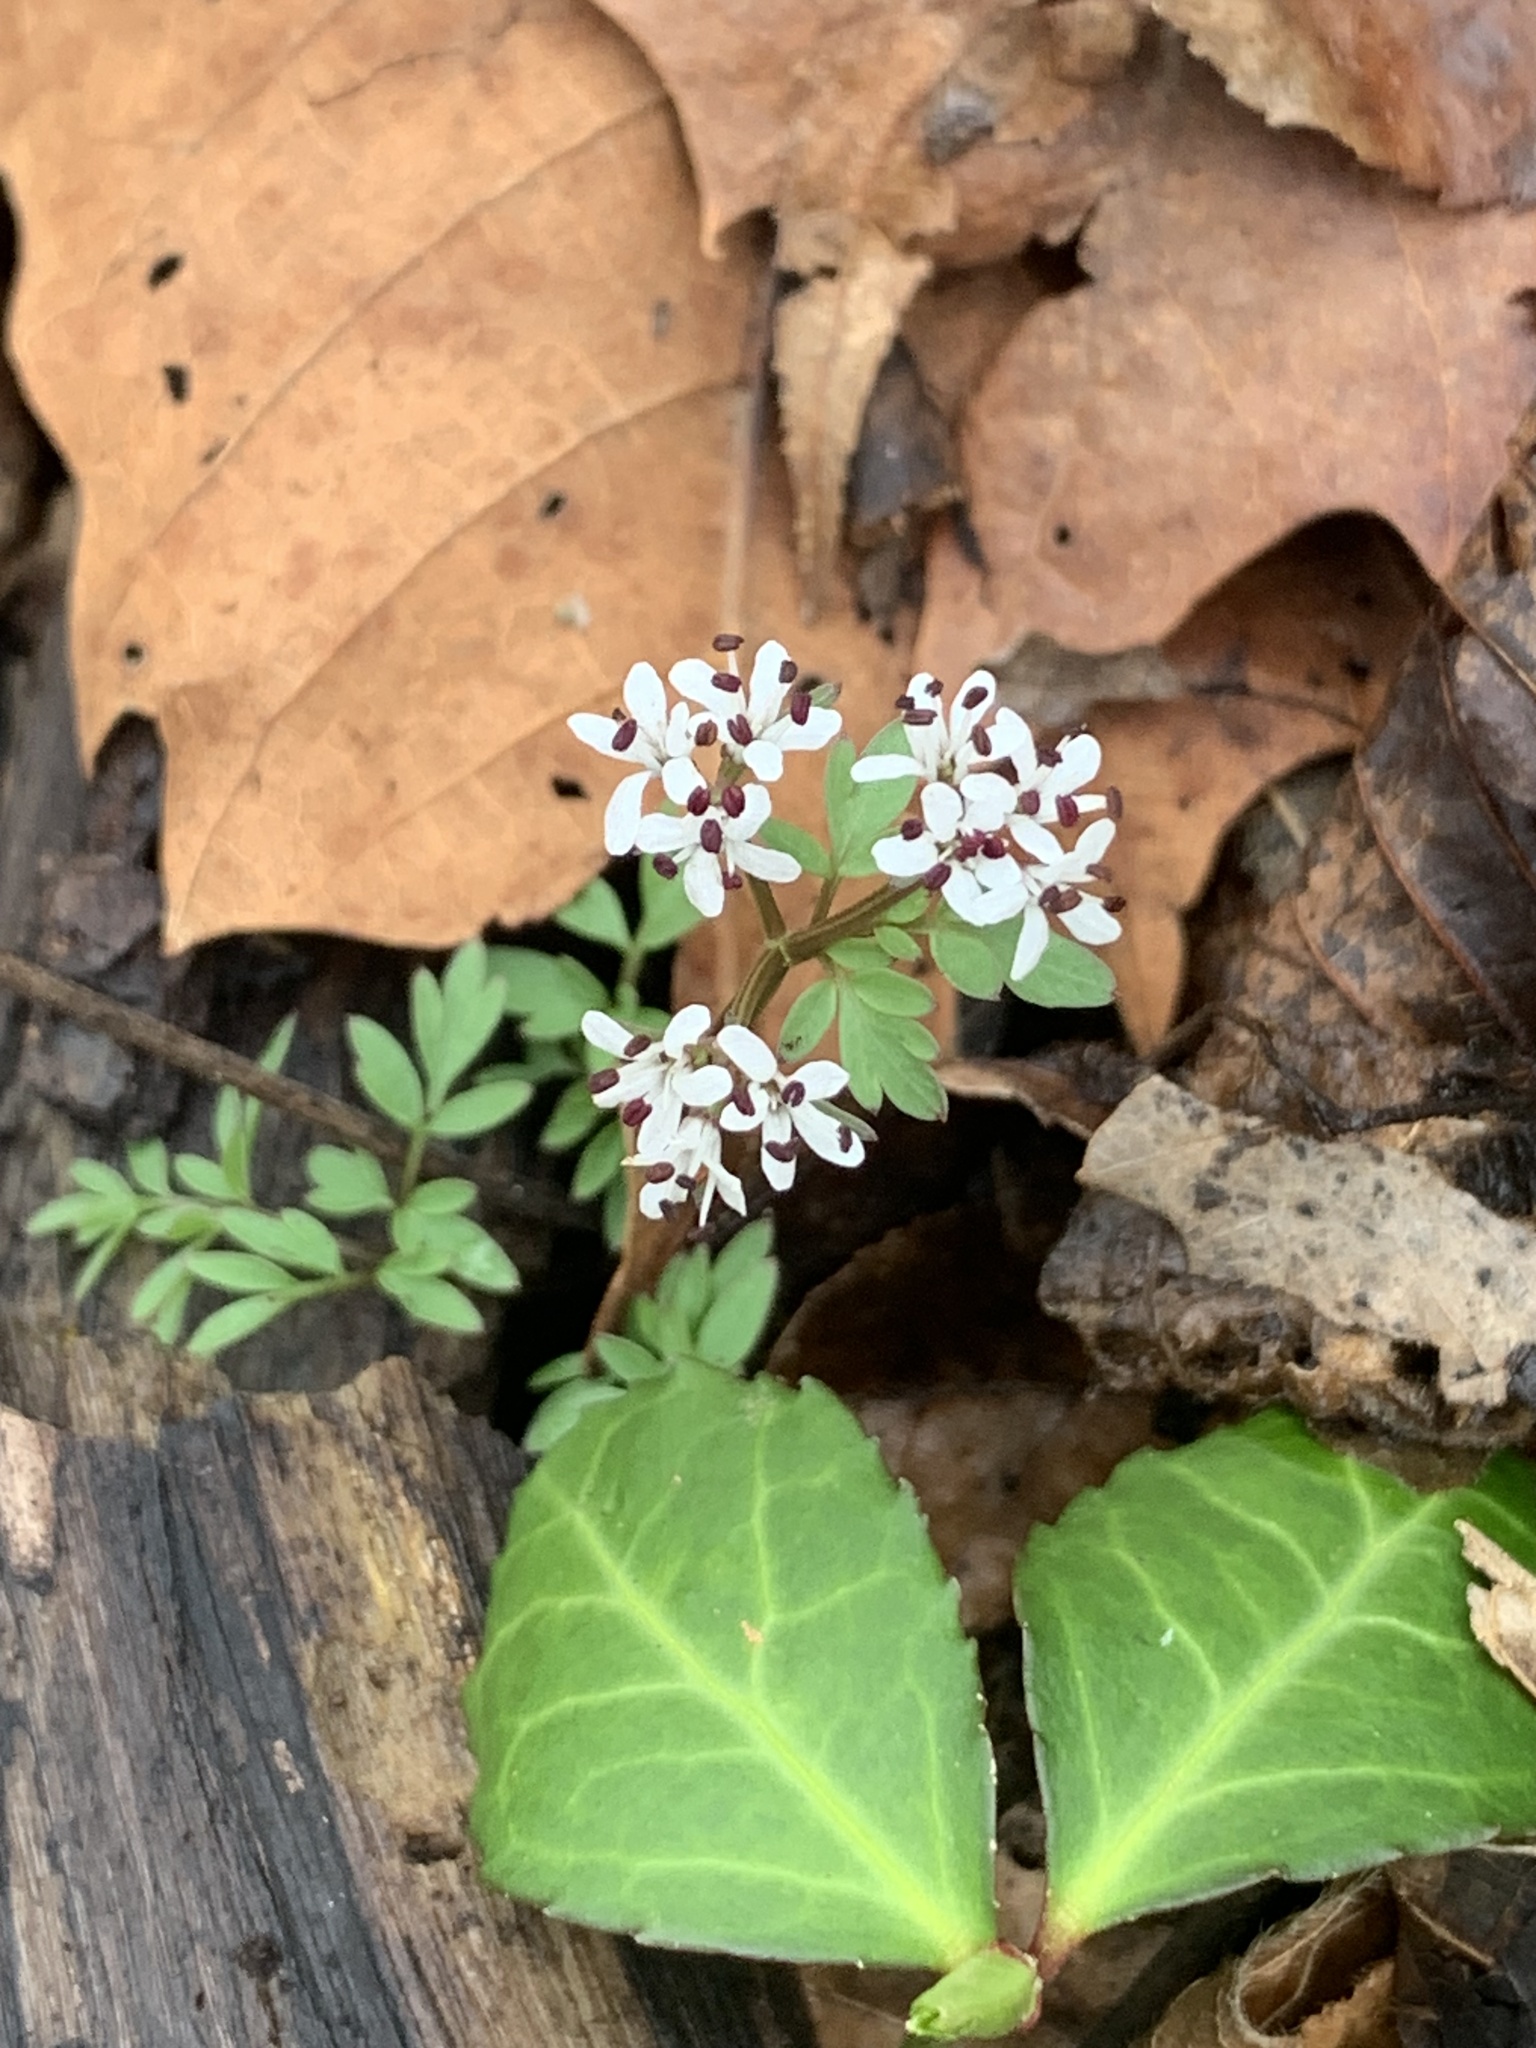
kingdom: Plantae
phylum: Tracheophyta
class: Magnoliopsida
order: Apiales
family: Apiaceae
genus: Erigenia
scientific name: Erigenia bulbosa
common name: Pepper-and-salt
